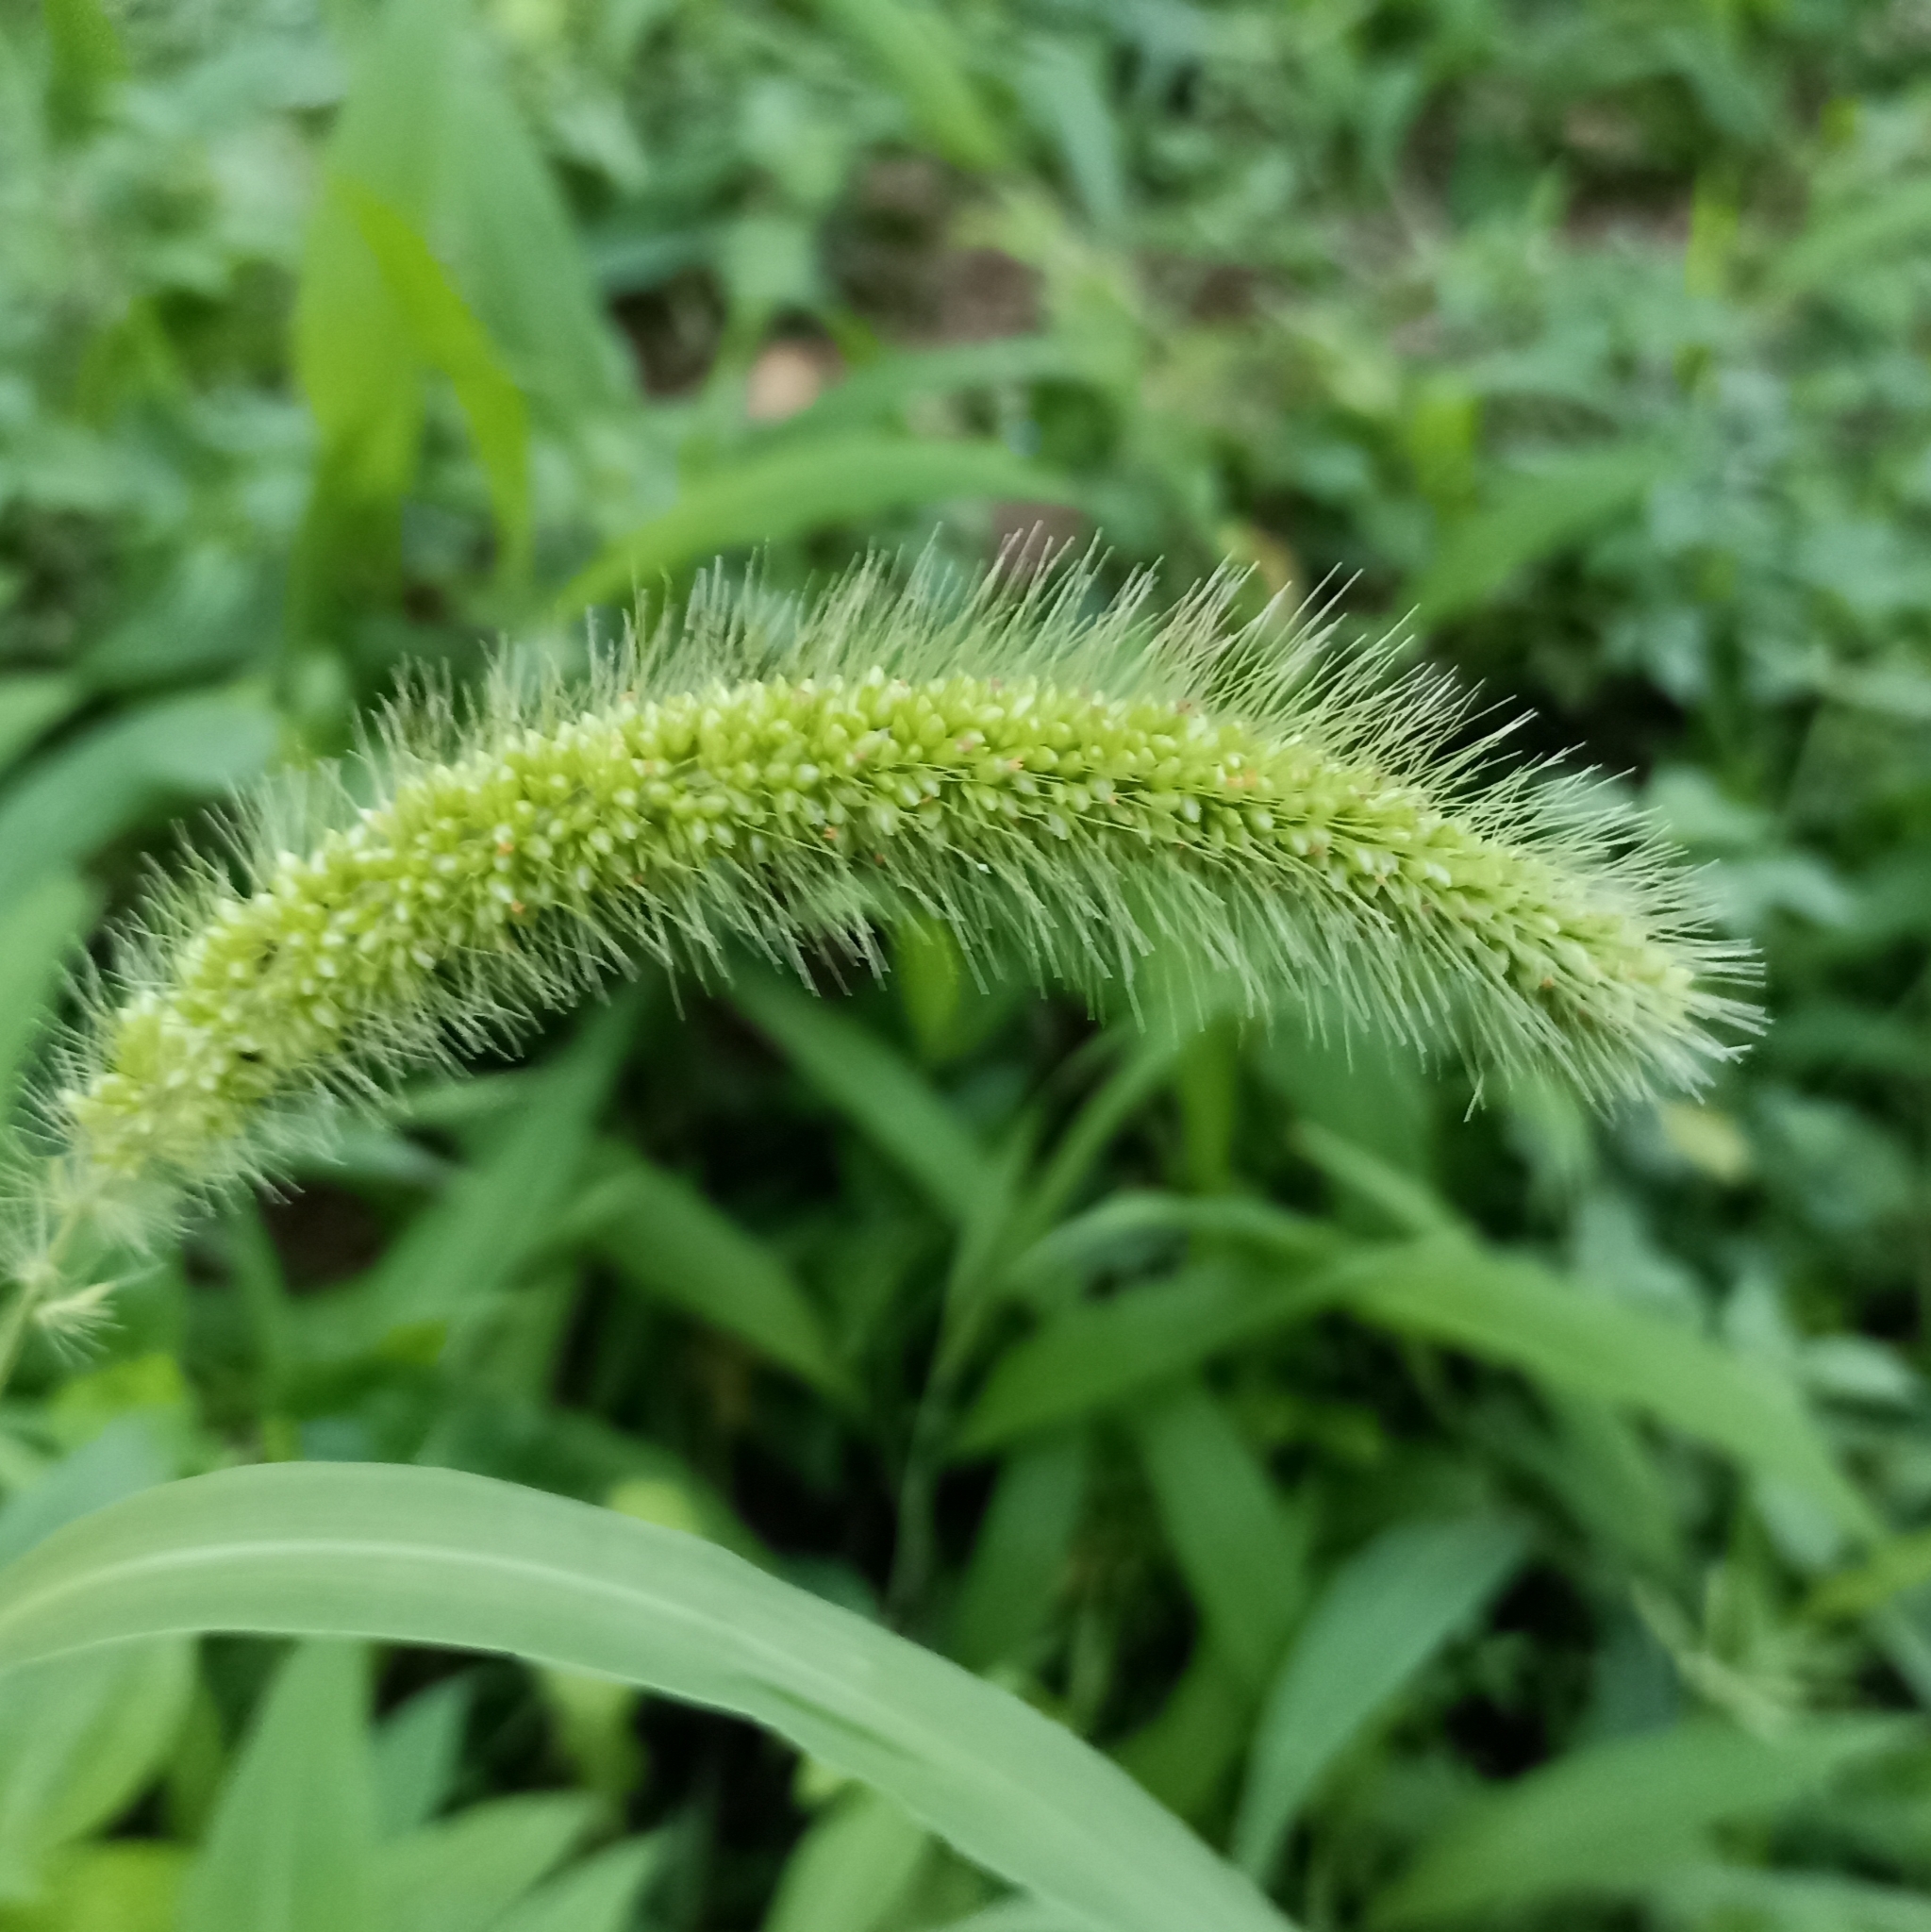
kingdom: Plantae
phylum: Tracheophyta
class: Liliopsida
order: Poales
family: Poaceae
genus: Setaria
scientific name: Setaria viridis
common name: Green bristlegrass
